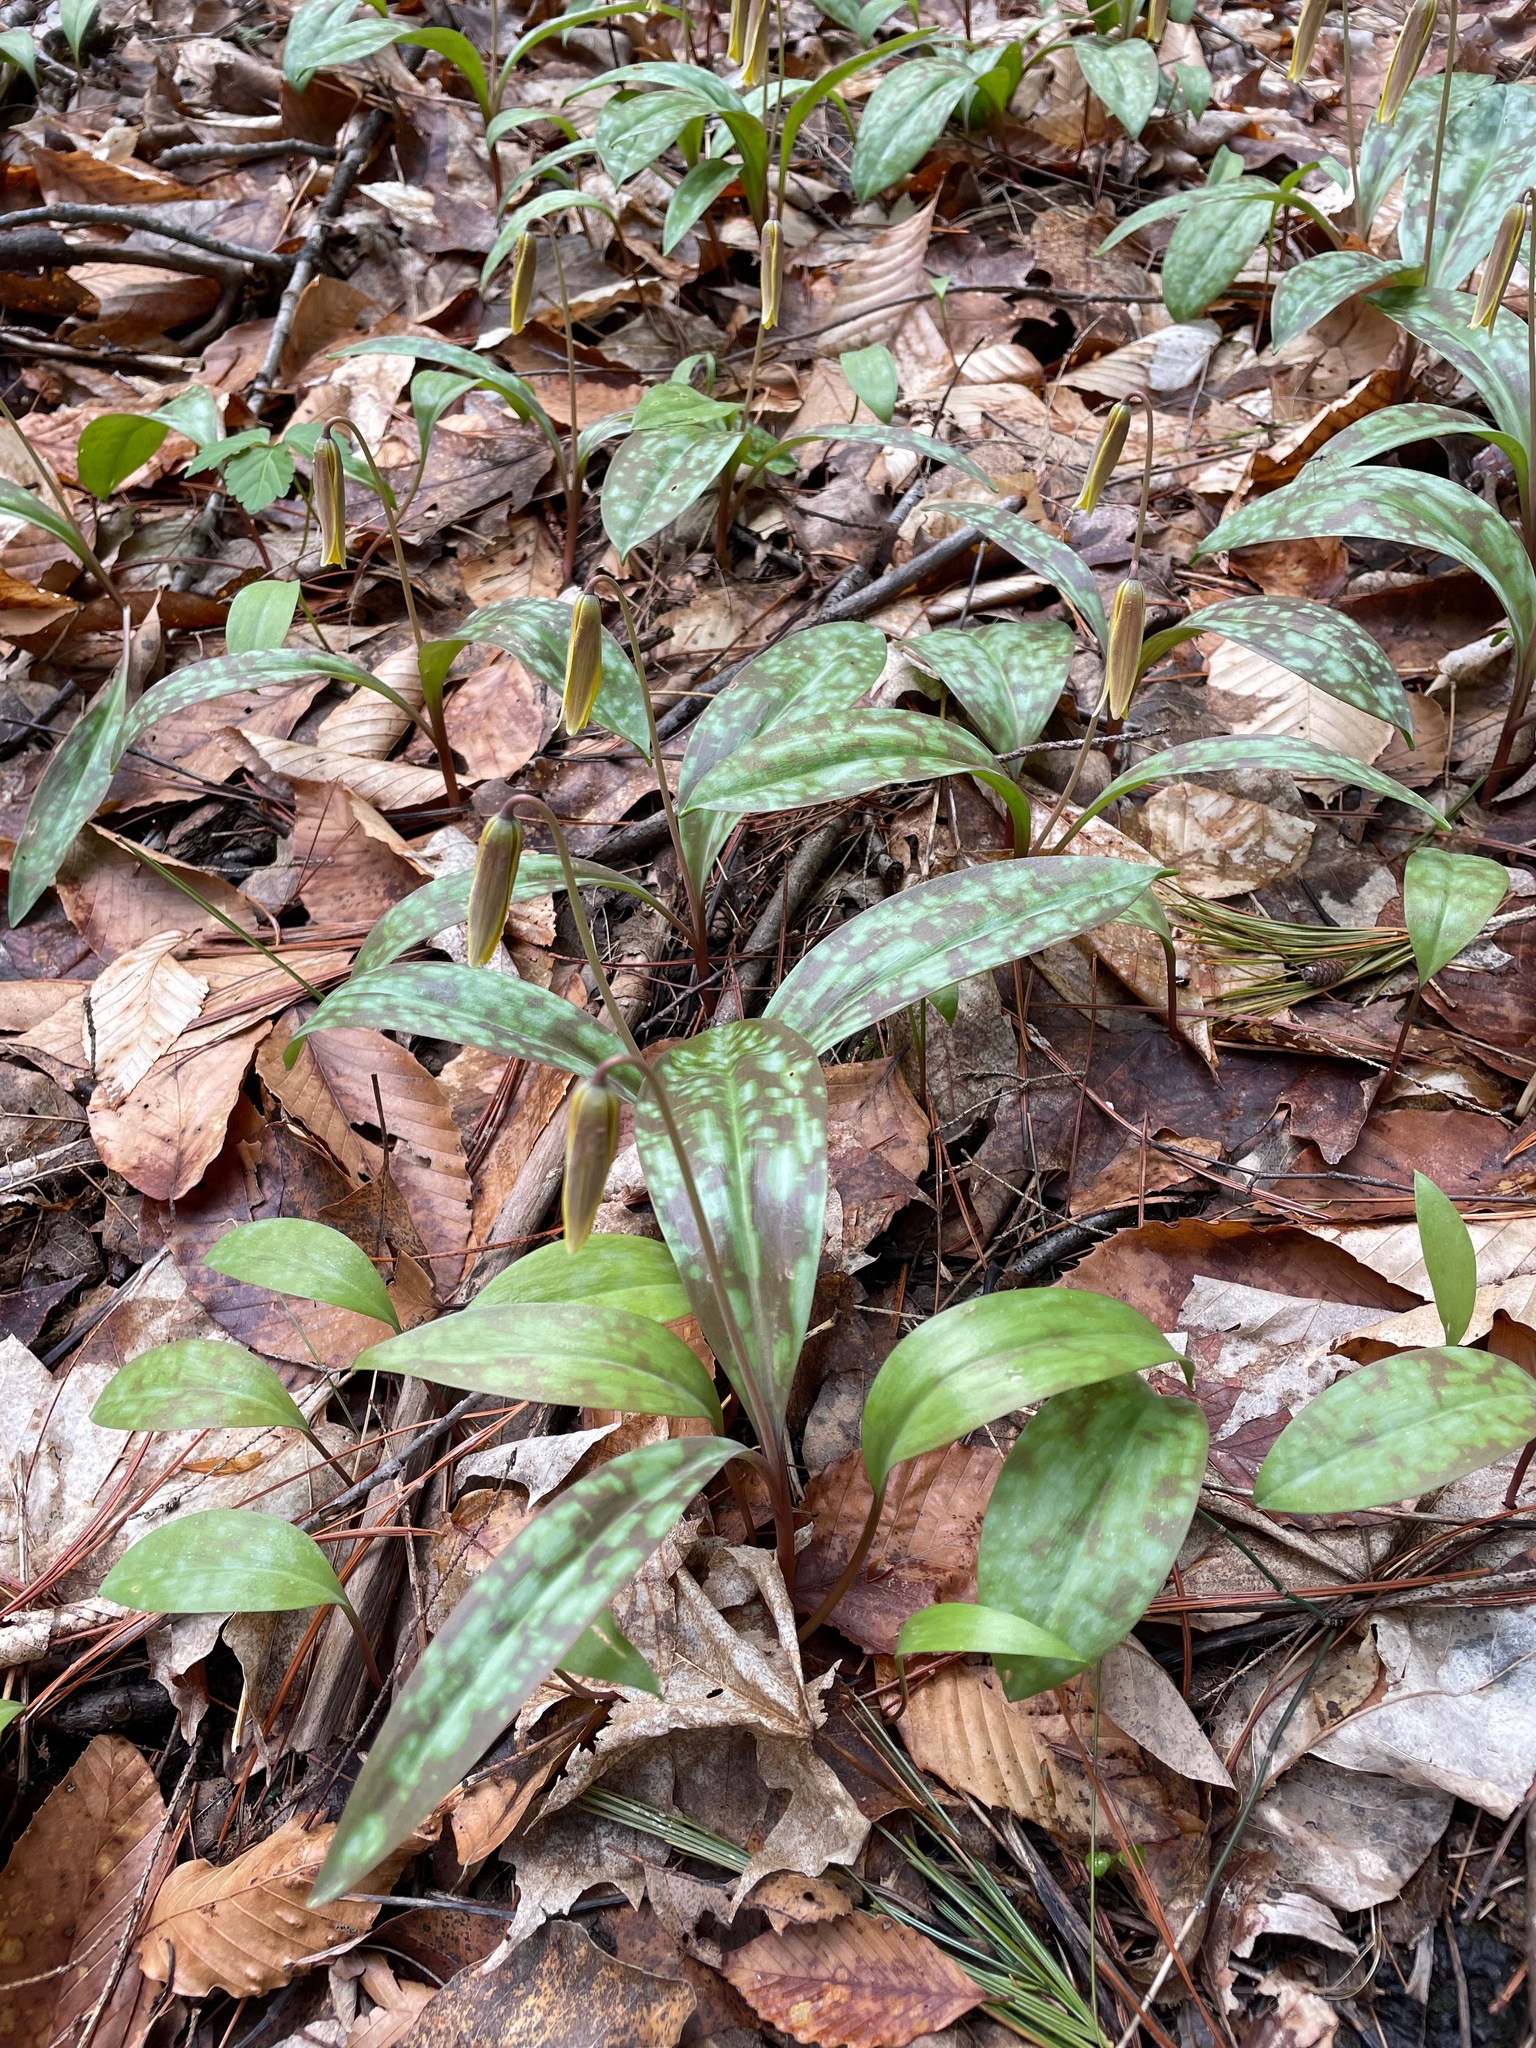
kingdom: Plantae
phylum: Tracheophyta
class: Liliopsida
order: Liliales
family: Liliaceae
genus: Erythronium
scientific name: Erythronium americanum
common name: Yellow adder's-tongue
